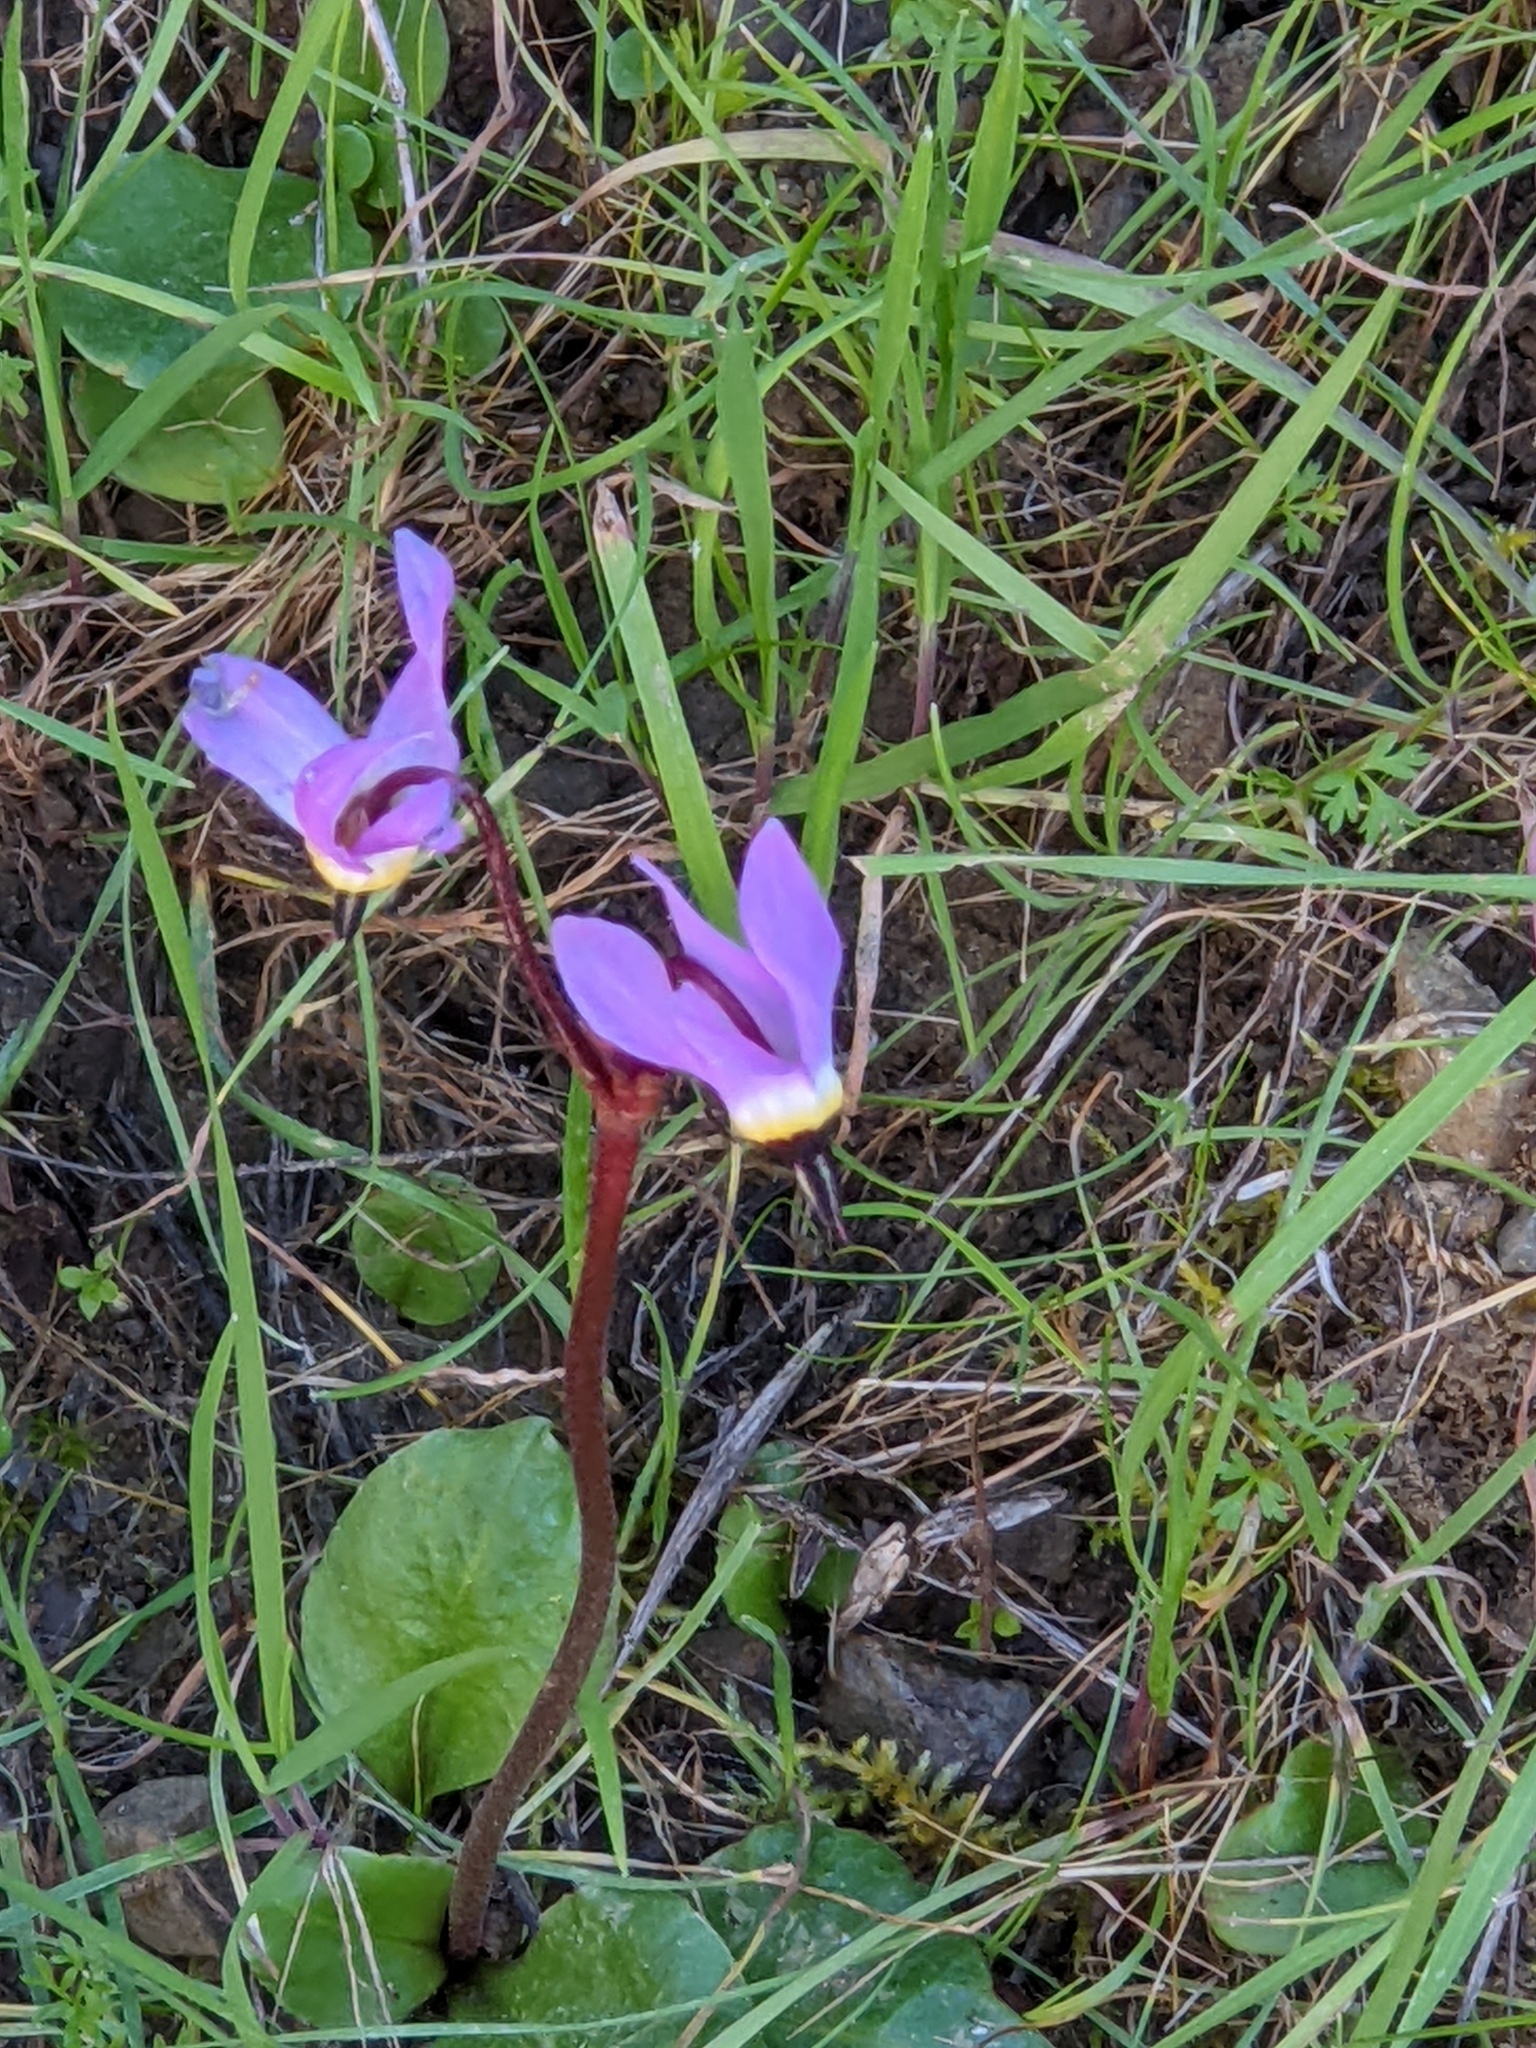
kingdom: Plantae
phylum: Tracheophyta
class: Magnoliopsida
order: Ericales
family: Primulaceae
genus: Dodecatheon
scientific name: Dodecatheon hendersonii
